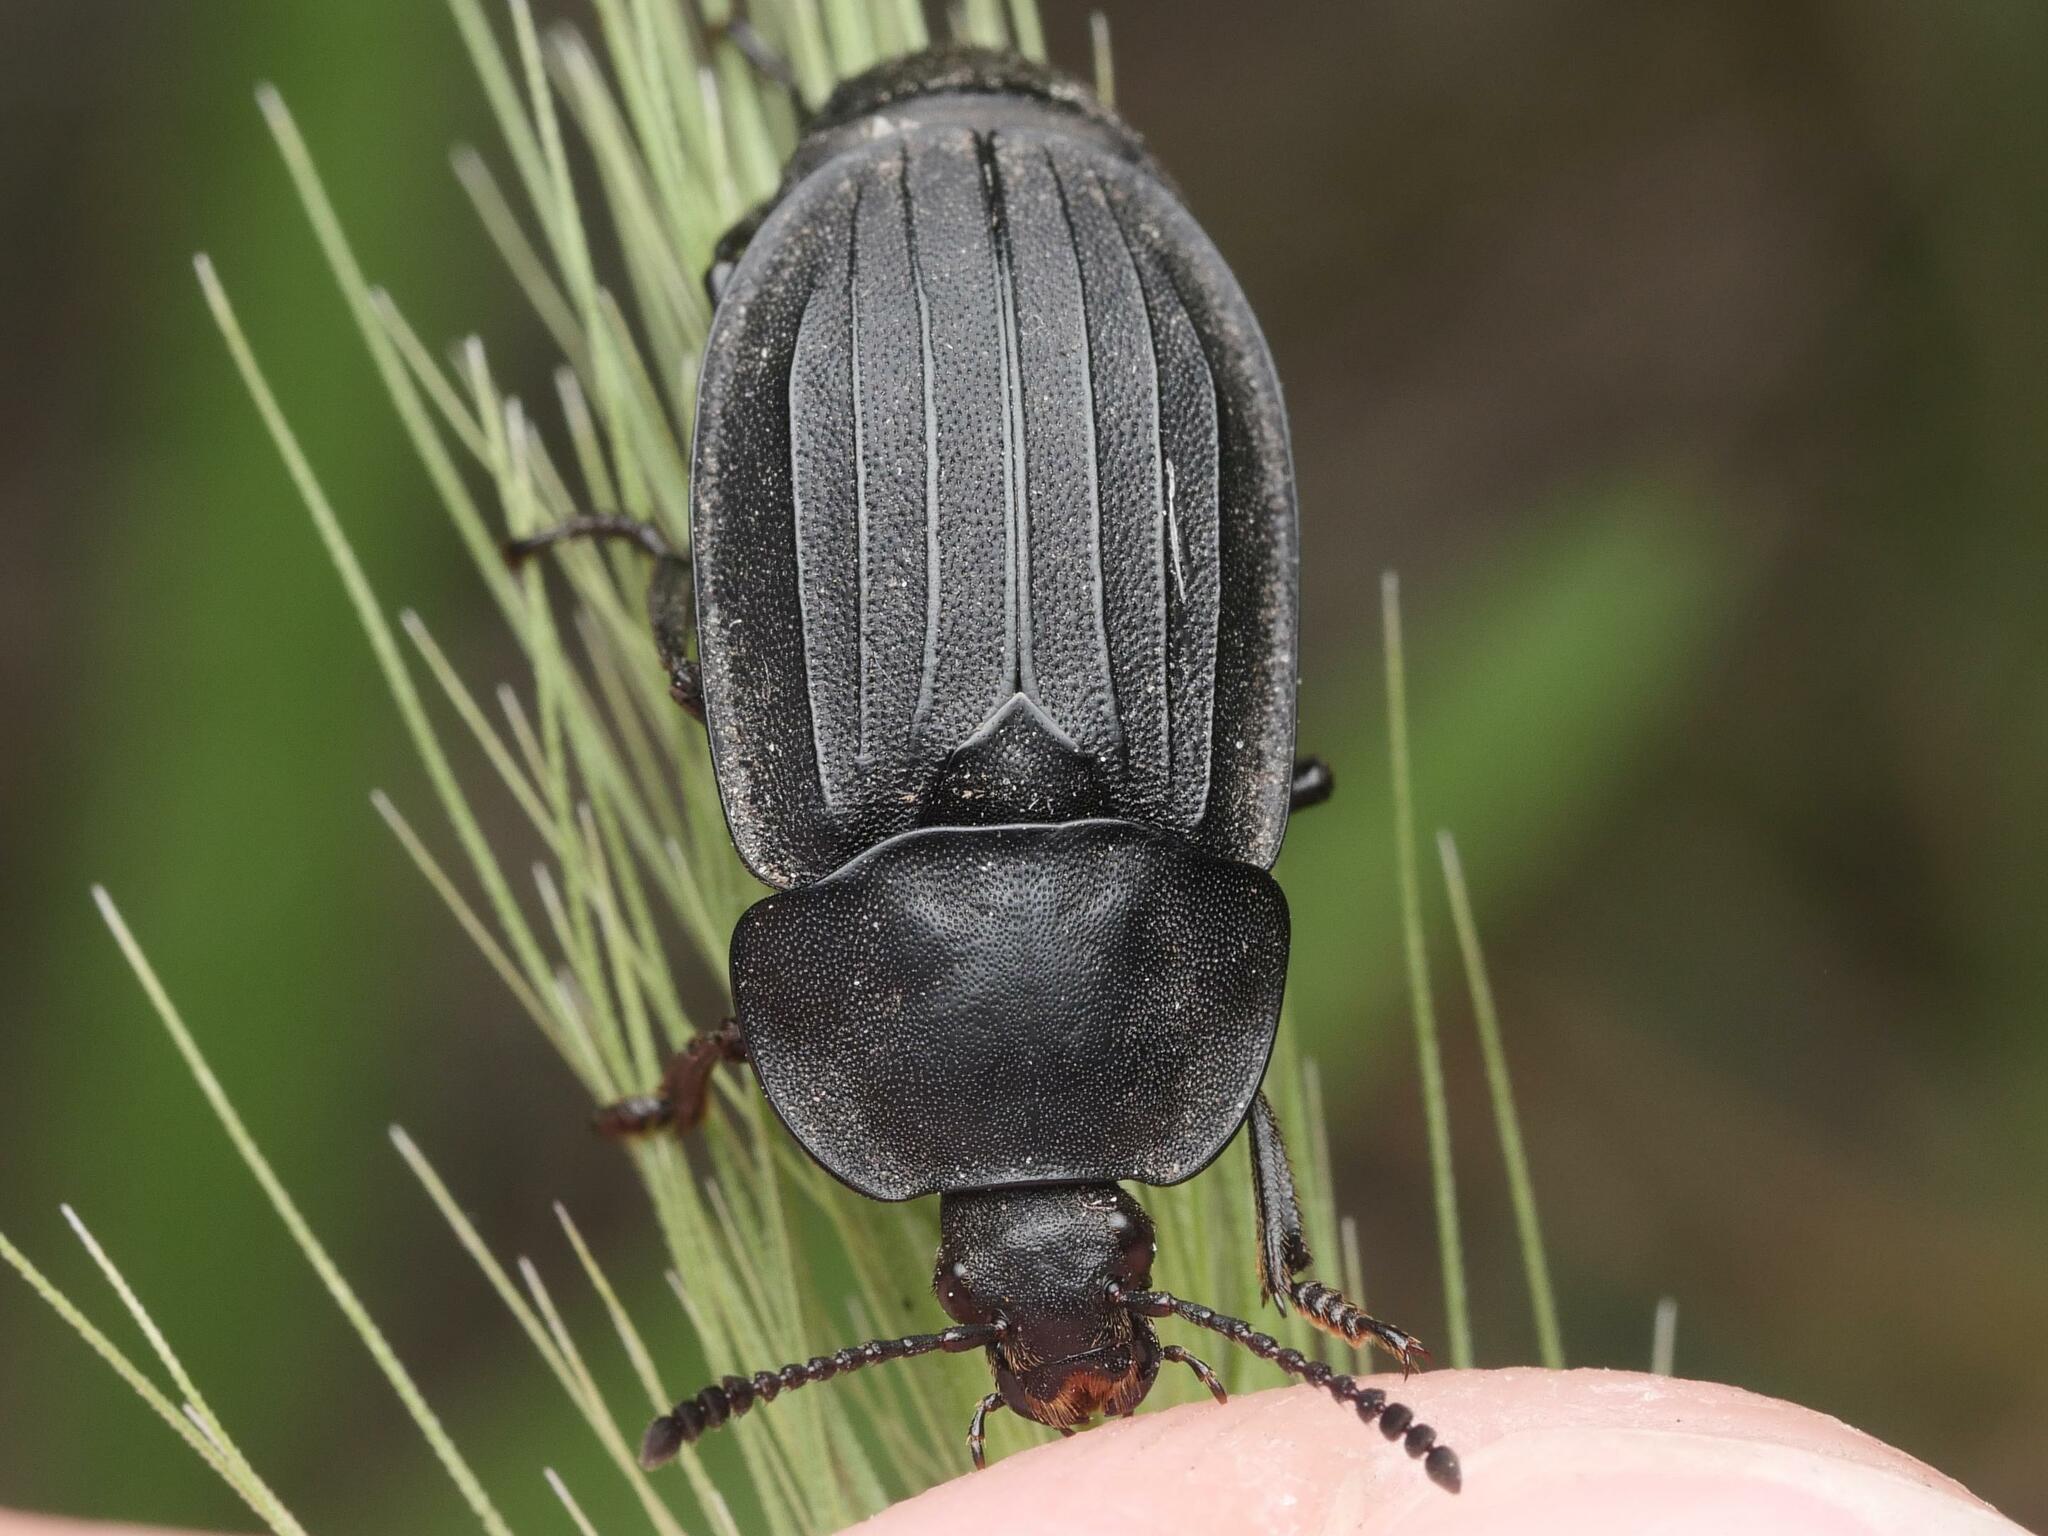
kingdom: Animalia
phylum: Arthropoda
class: Insecta
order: Coleoptera
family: Staphylinidae
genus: Silpha
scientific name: Silpha tristis
